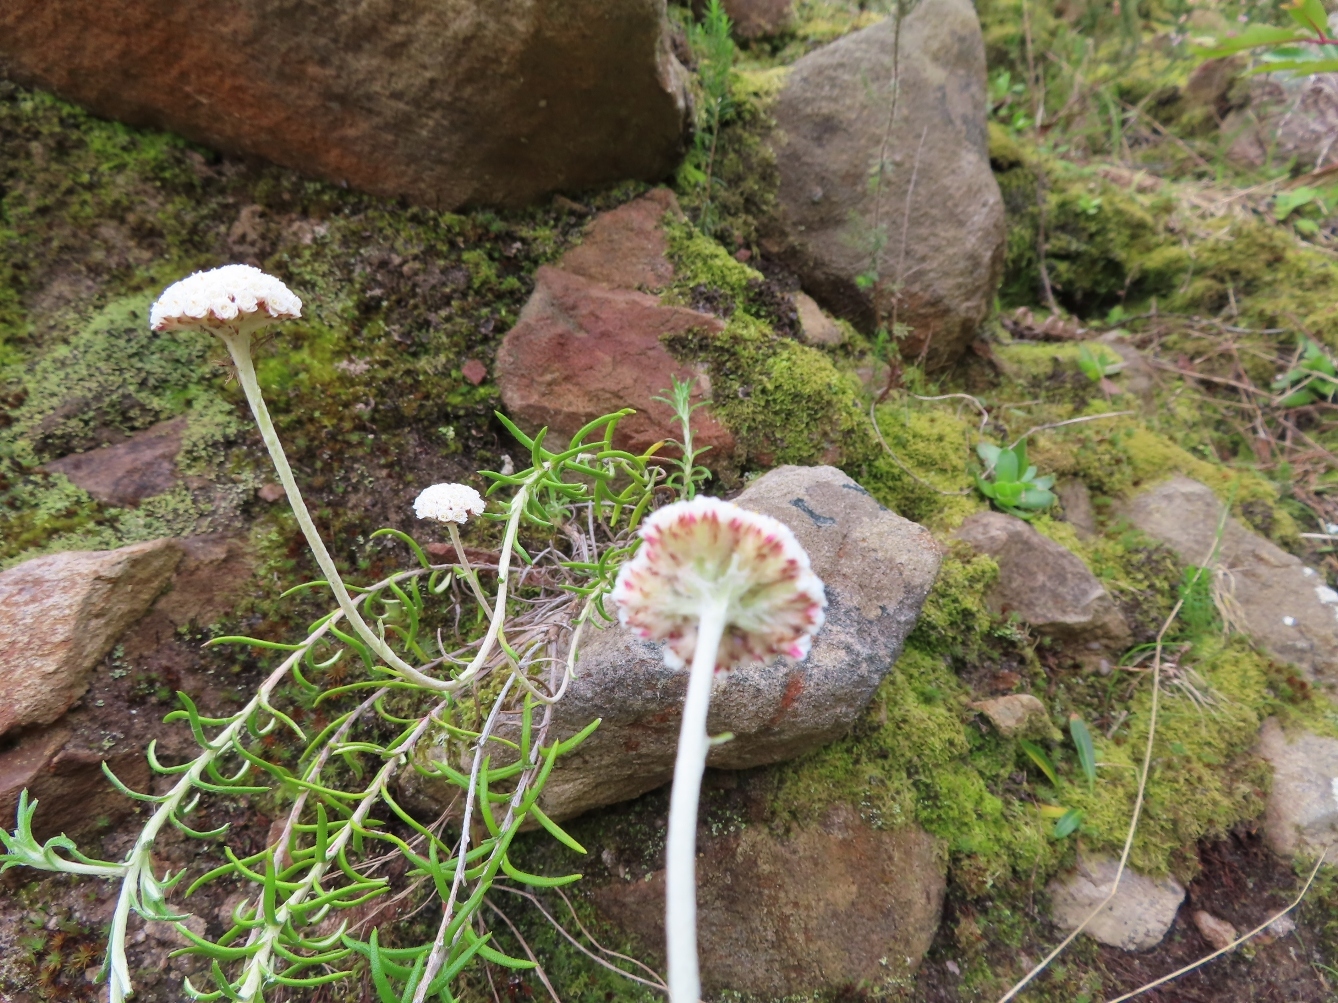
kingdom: Plantae
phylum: Tracheophyta
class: Magnoliopsida
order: Asterales
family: Asteraceae
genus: Anaxeton
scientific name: Anaxeton asperum
